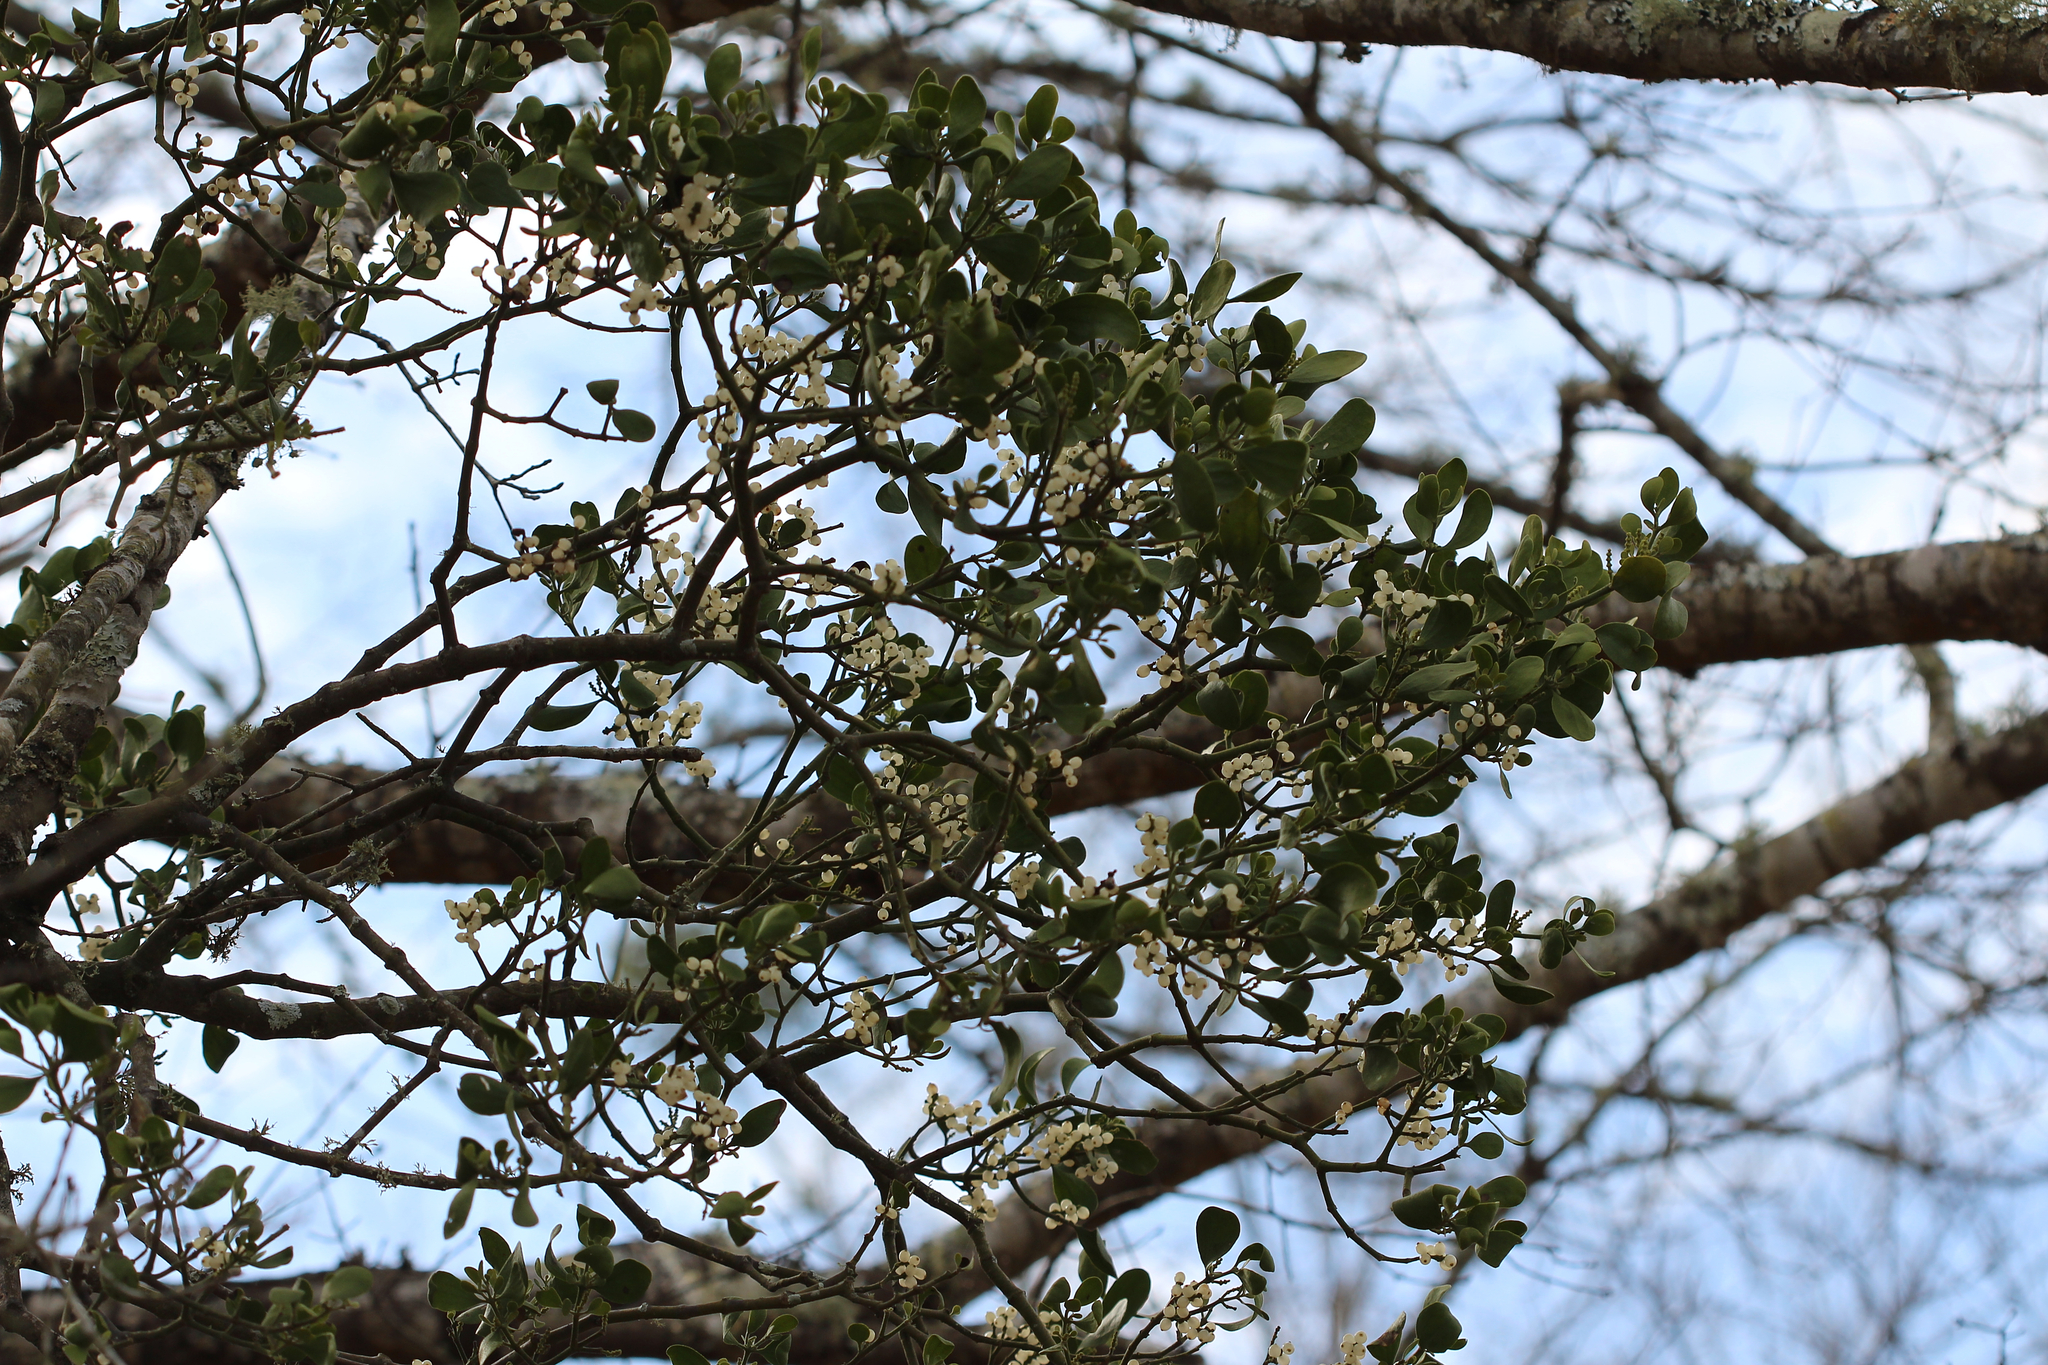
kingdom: Plantae
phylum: Tracheophyta
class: Magnoliopsida
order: Santalales
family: Viscaceae
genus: Phoradendron
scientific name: Phoradendron leucarpum
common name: Pacific mistletoe
